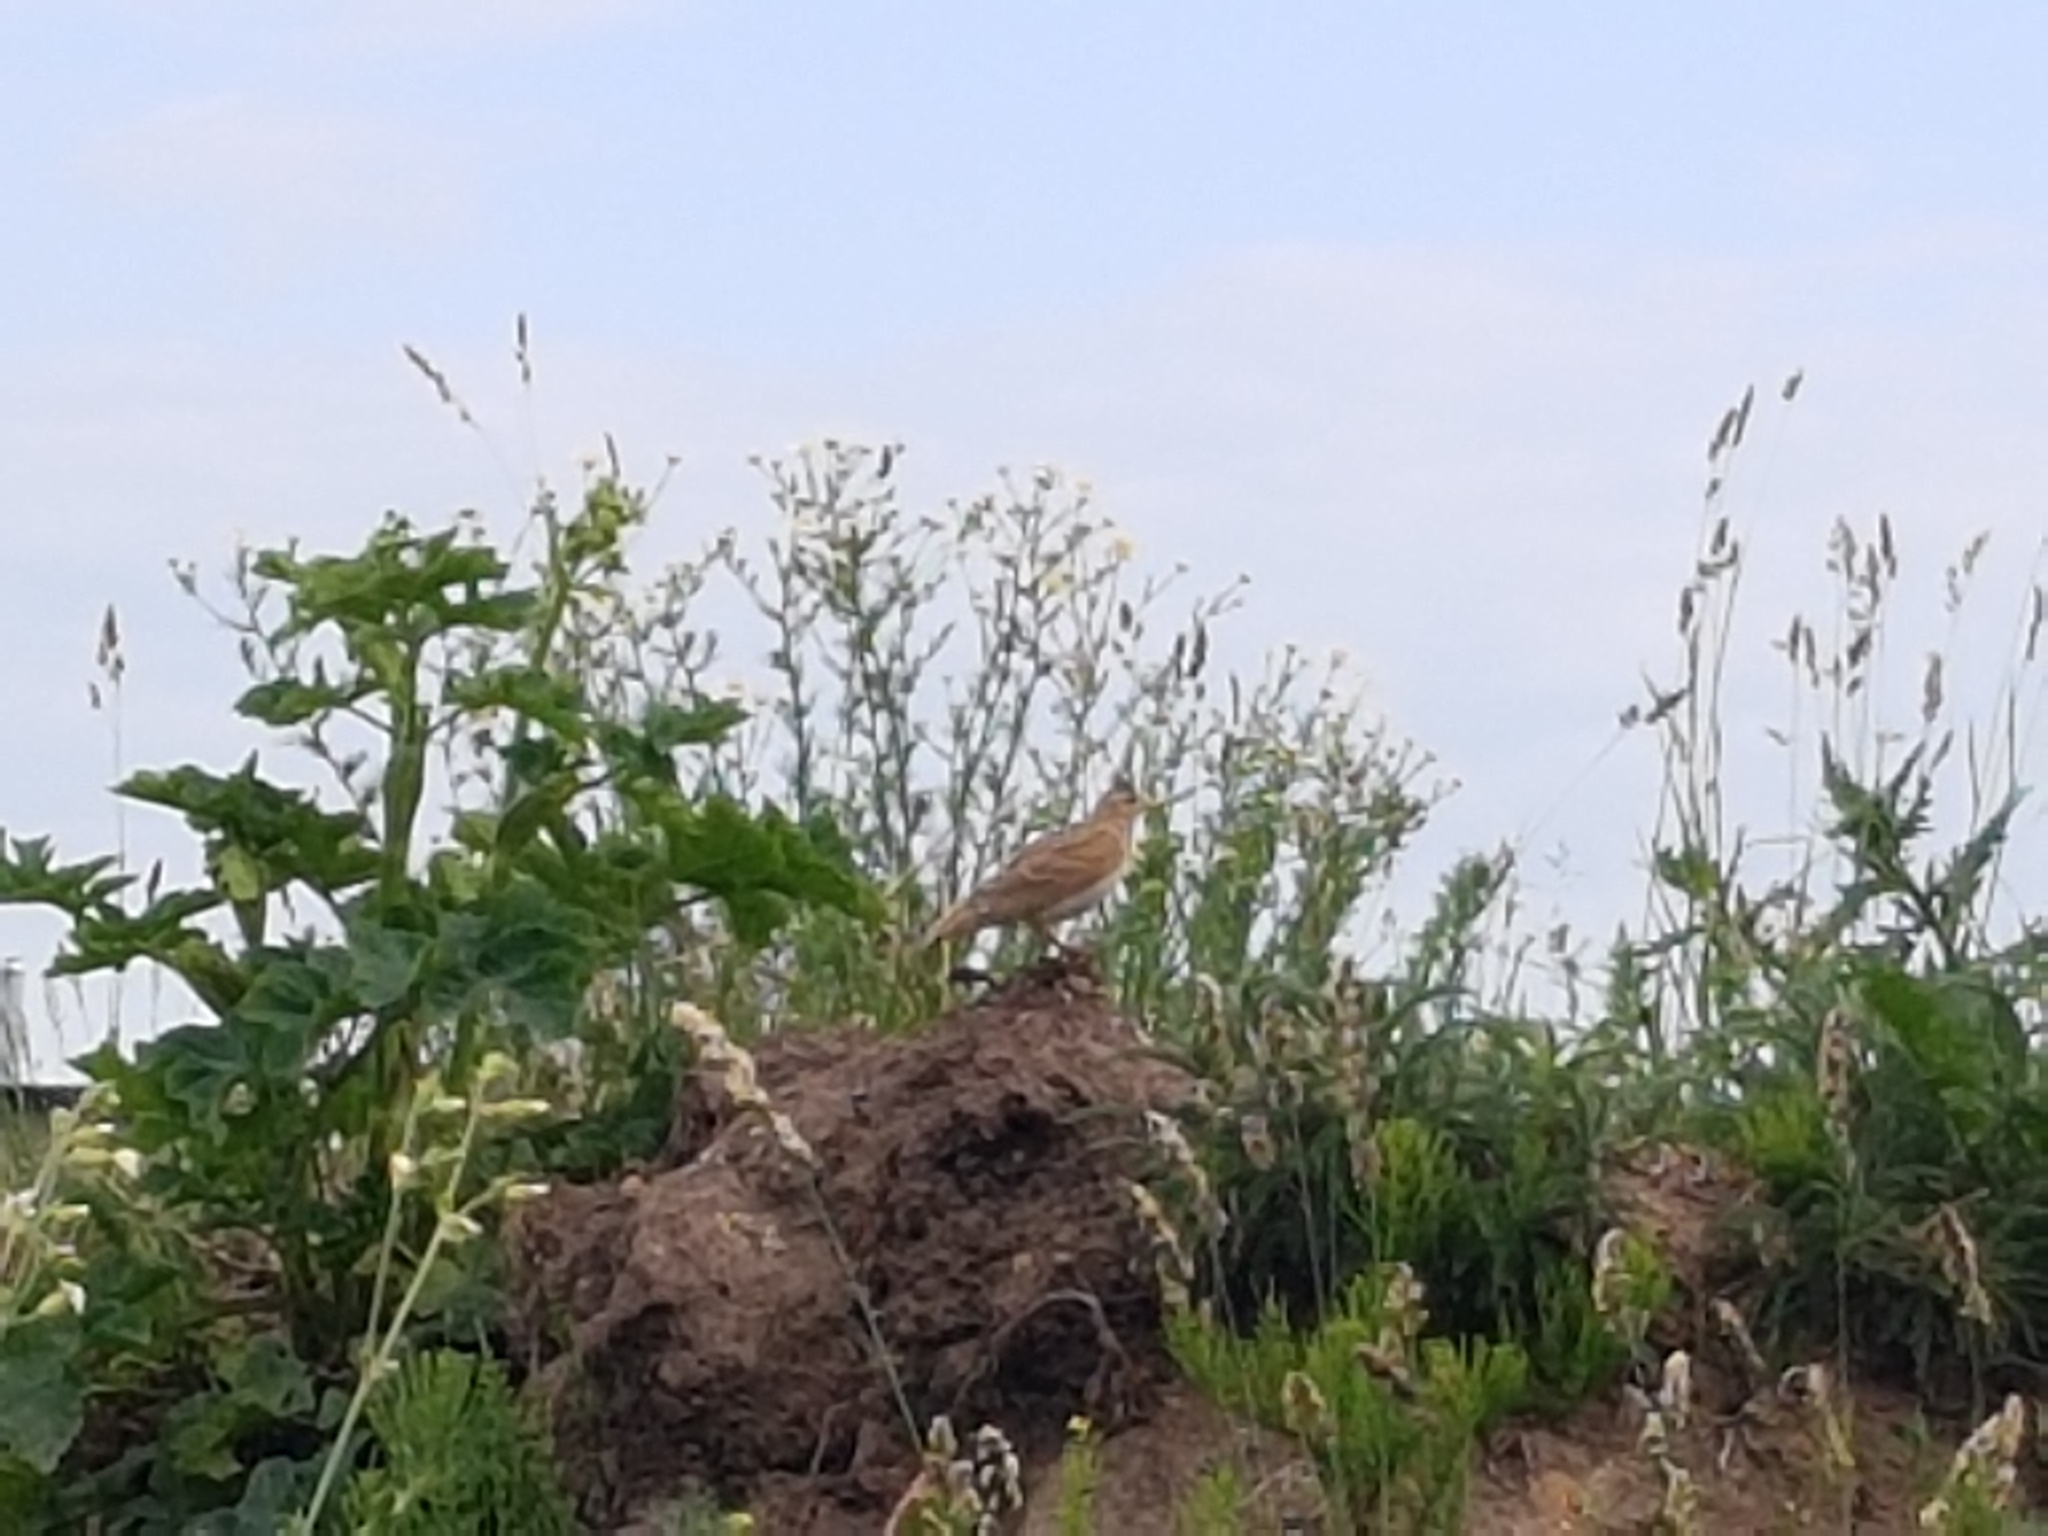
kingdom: Animalia
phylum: Chordata
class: Aves
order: Passeriformes
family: Alaudidae
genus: Alauda
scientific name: Alauda arvensis
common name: Eurasian skylark
